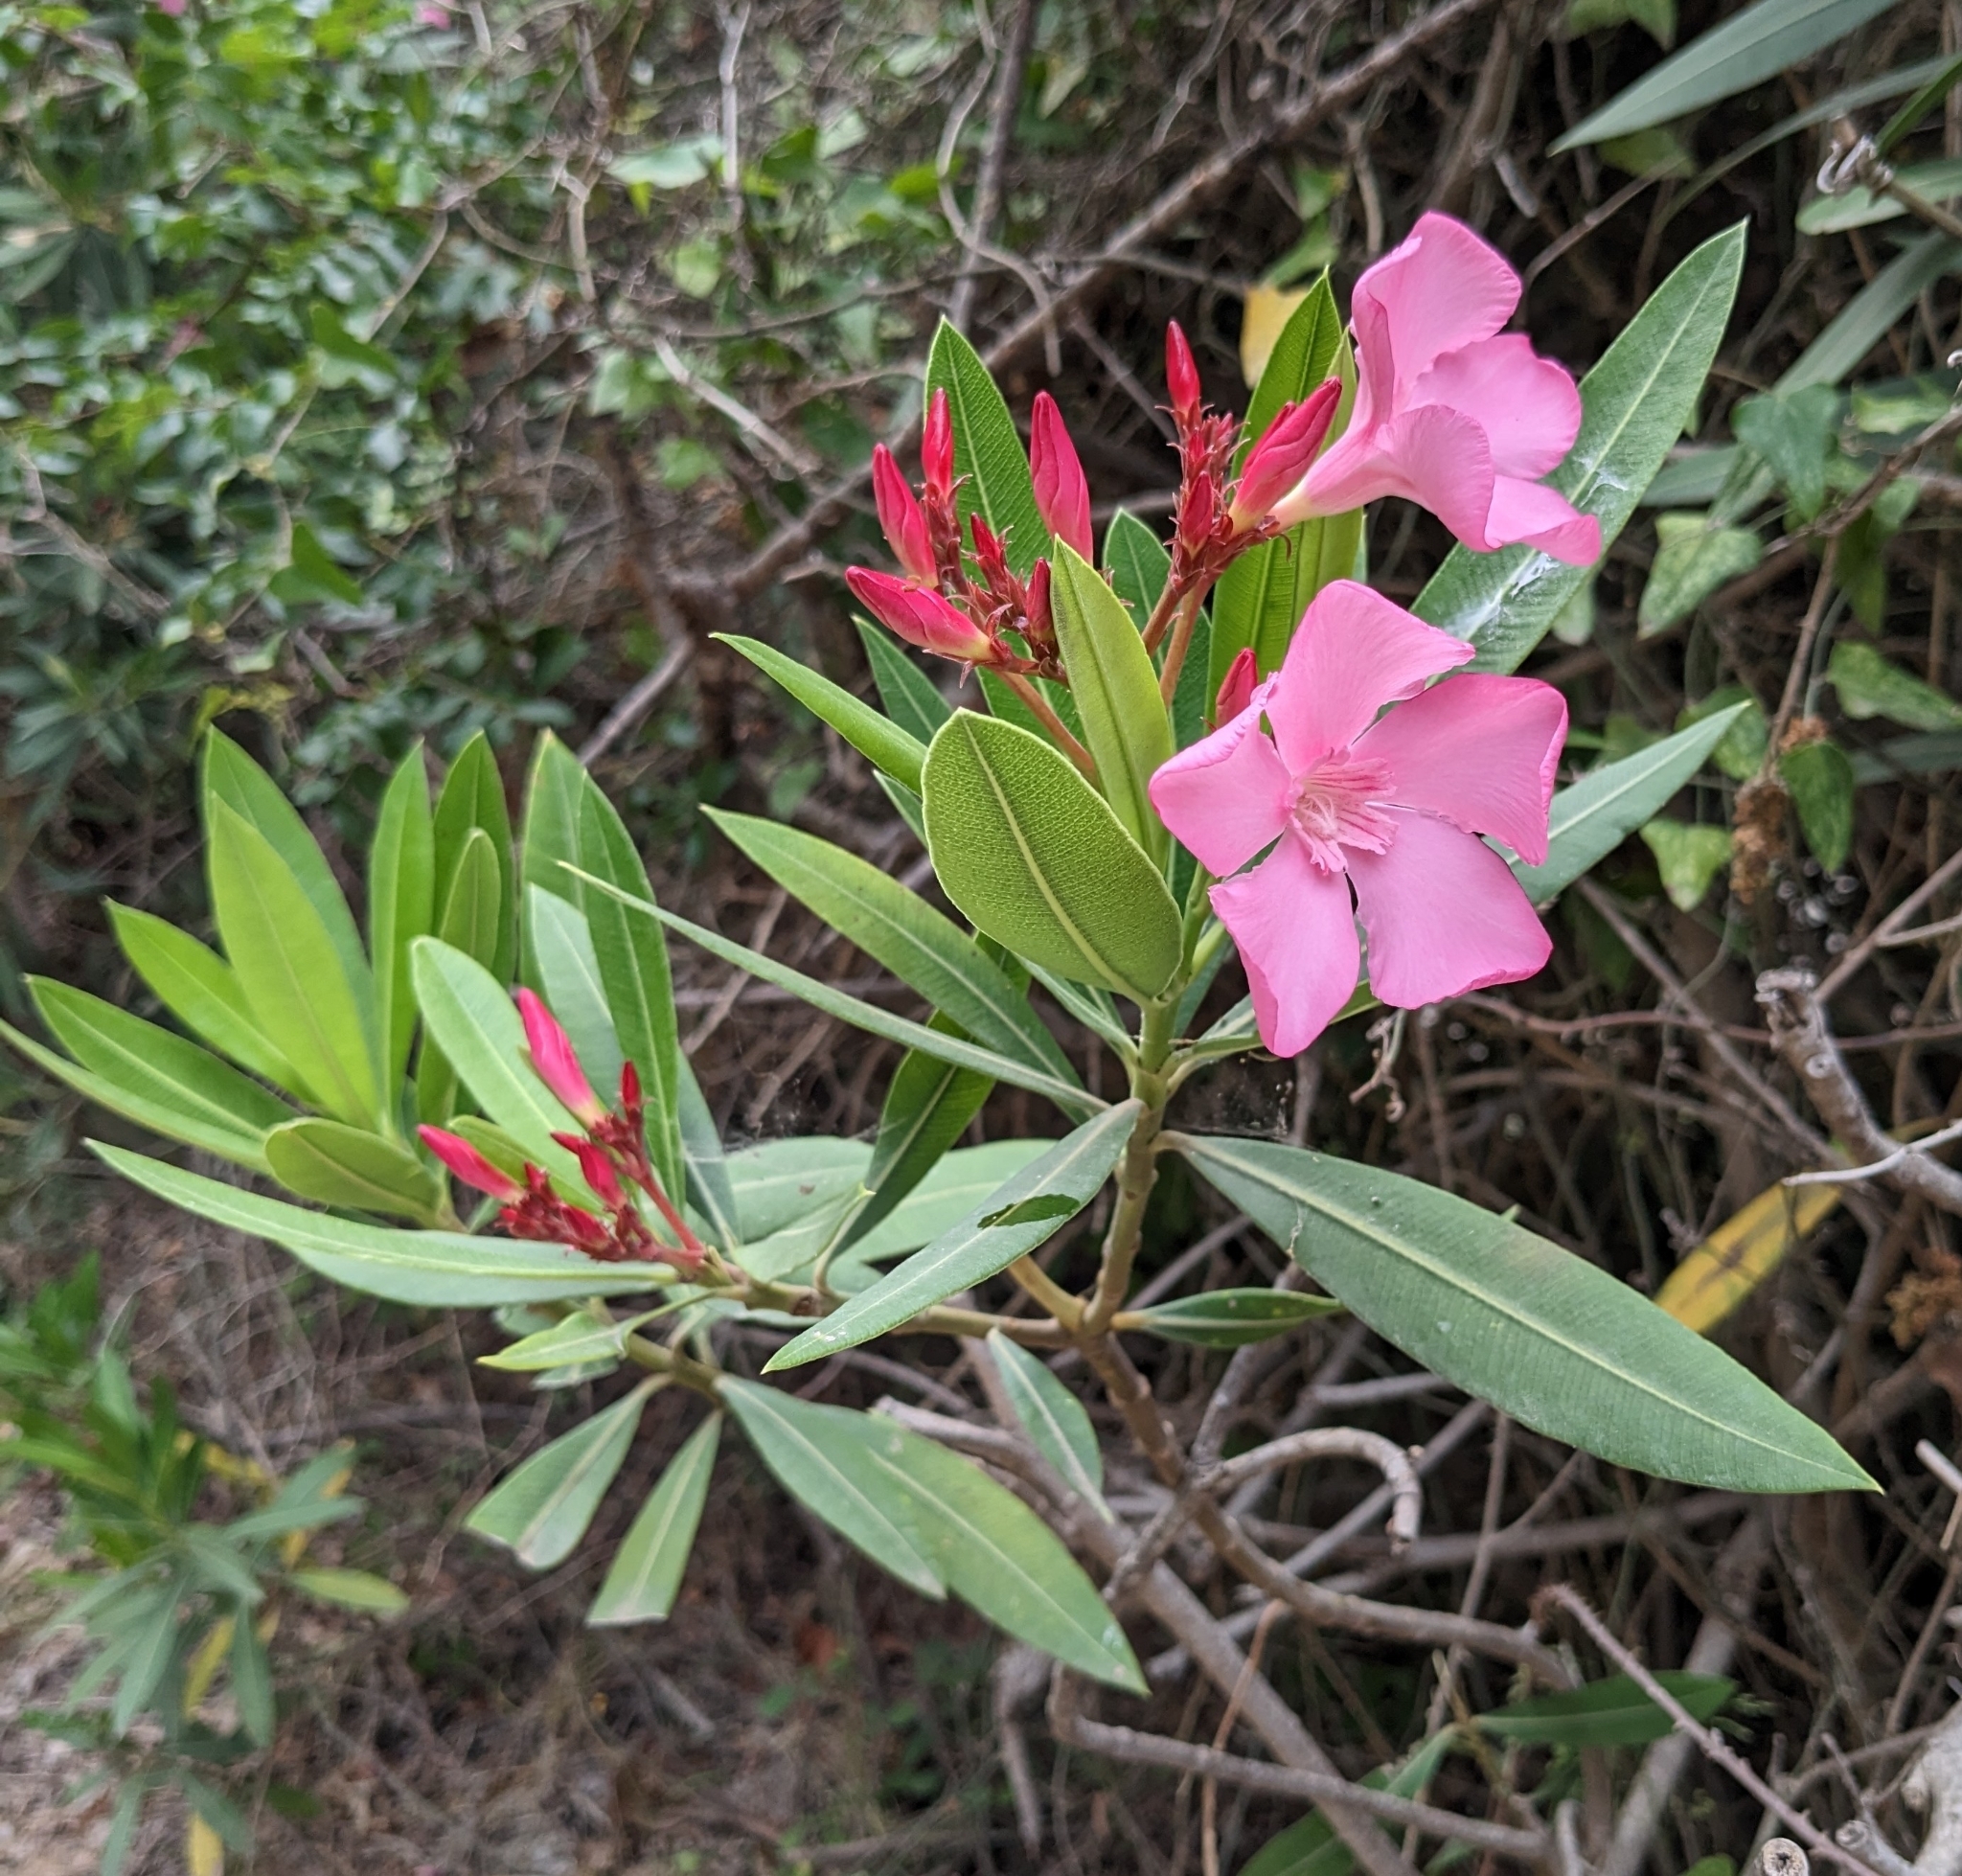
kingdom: Plantae
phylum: Tracheophyta
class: Magnoliopsida
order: Gentianales
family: Apocynaceae
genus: Nerium
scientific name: Nerium oleander
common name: Oleander
